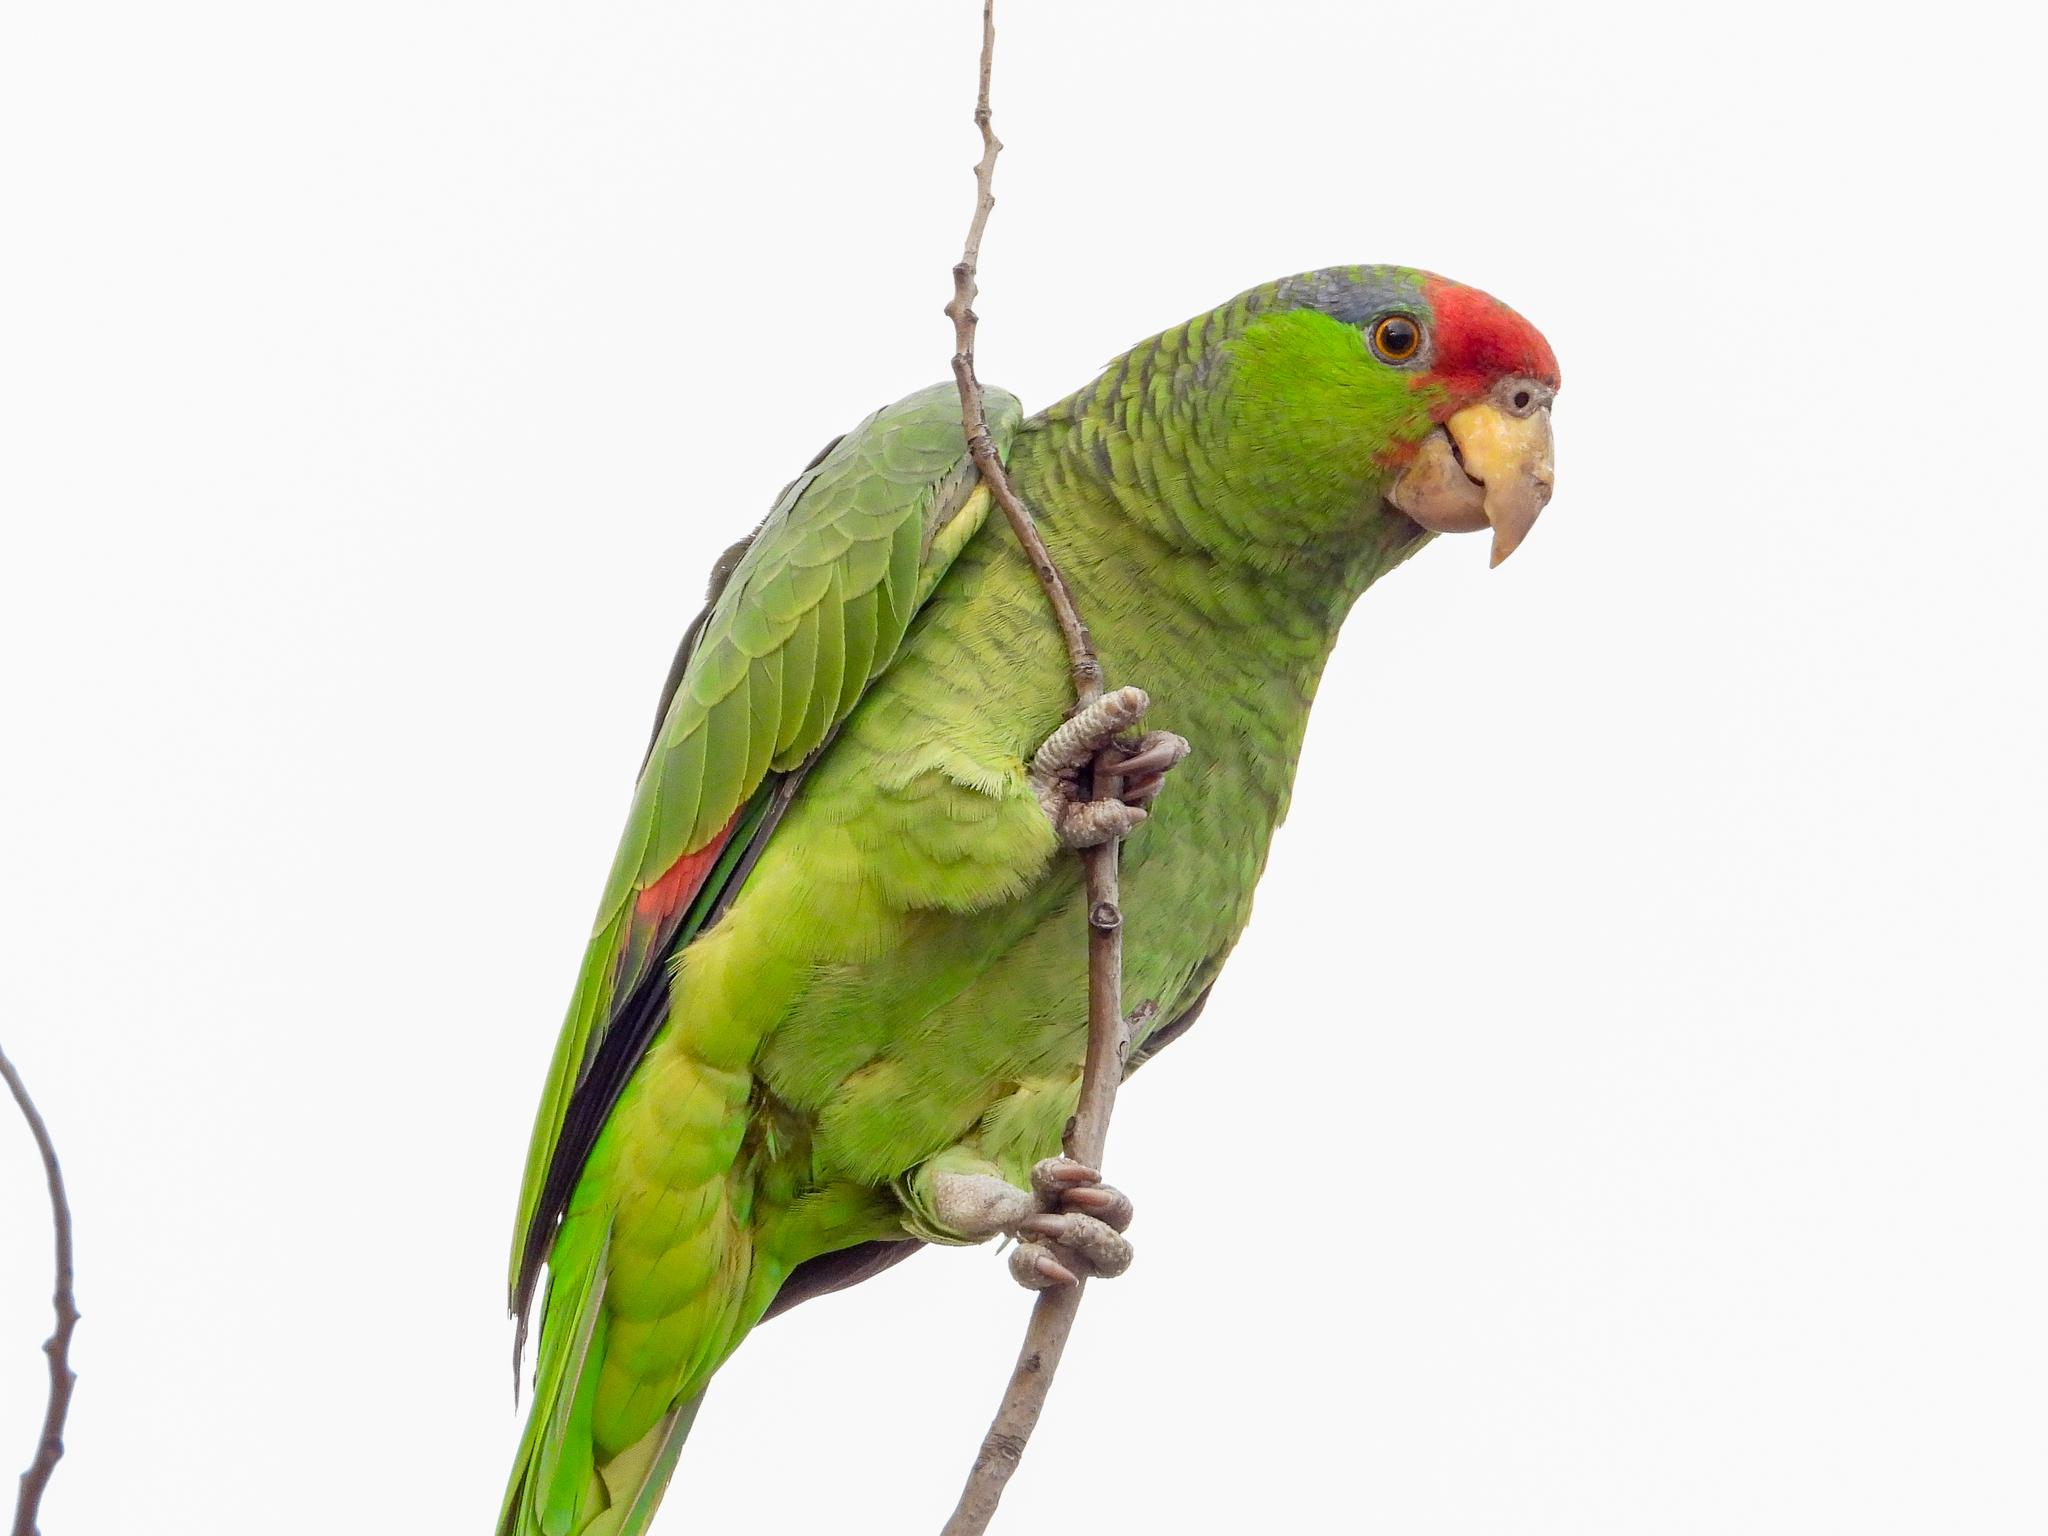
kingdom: Animalia
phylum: Chordata
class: Aves
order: Psittaciformes
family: Psittacidae
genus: Amazona
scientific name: Amazona viridigenalis
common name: Red-crowned amazon
